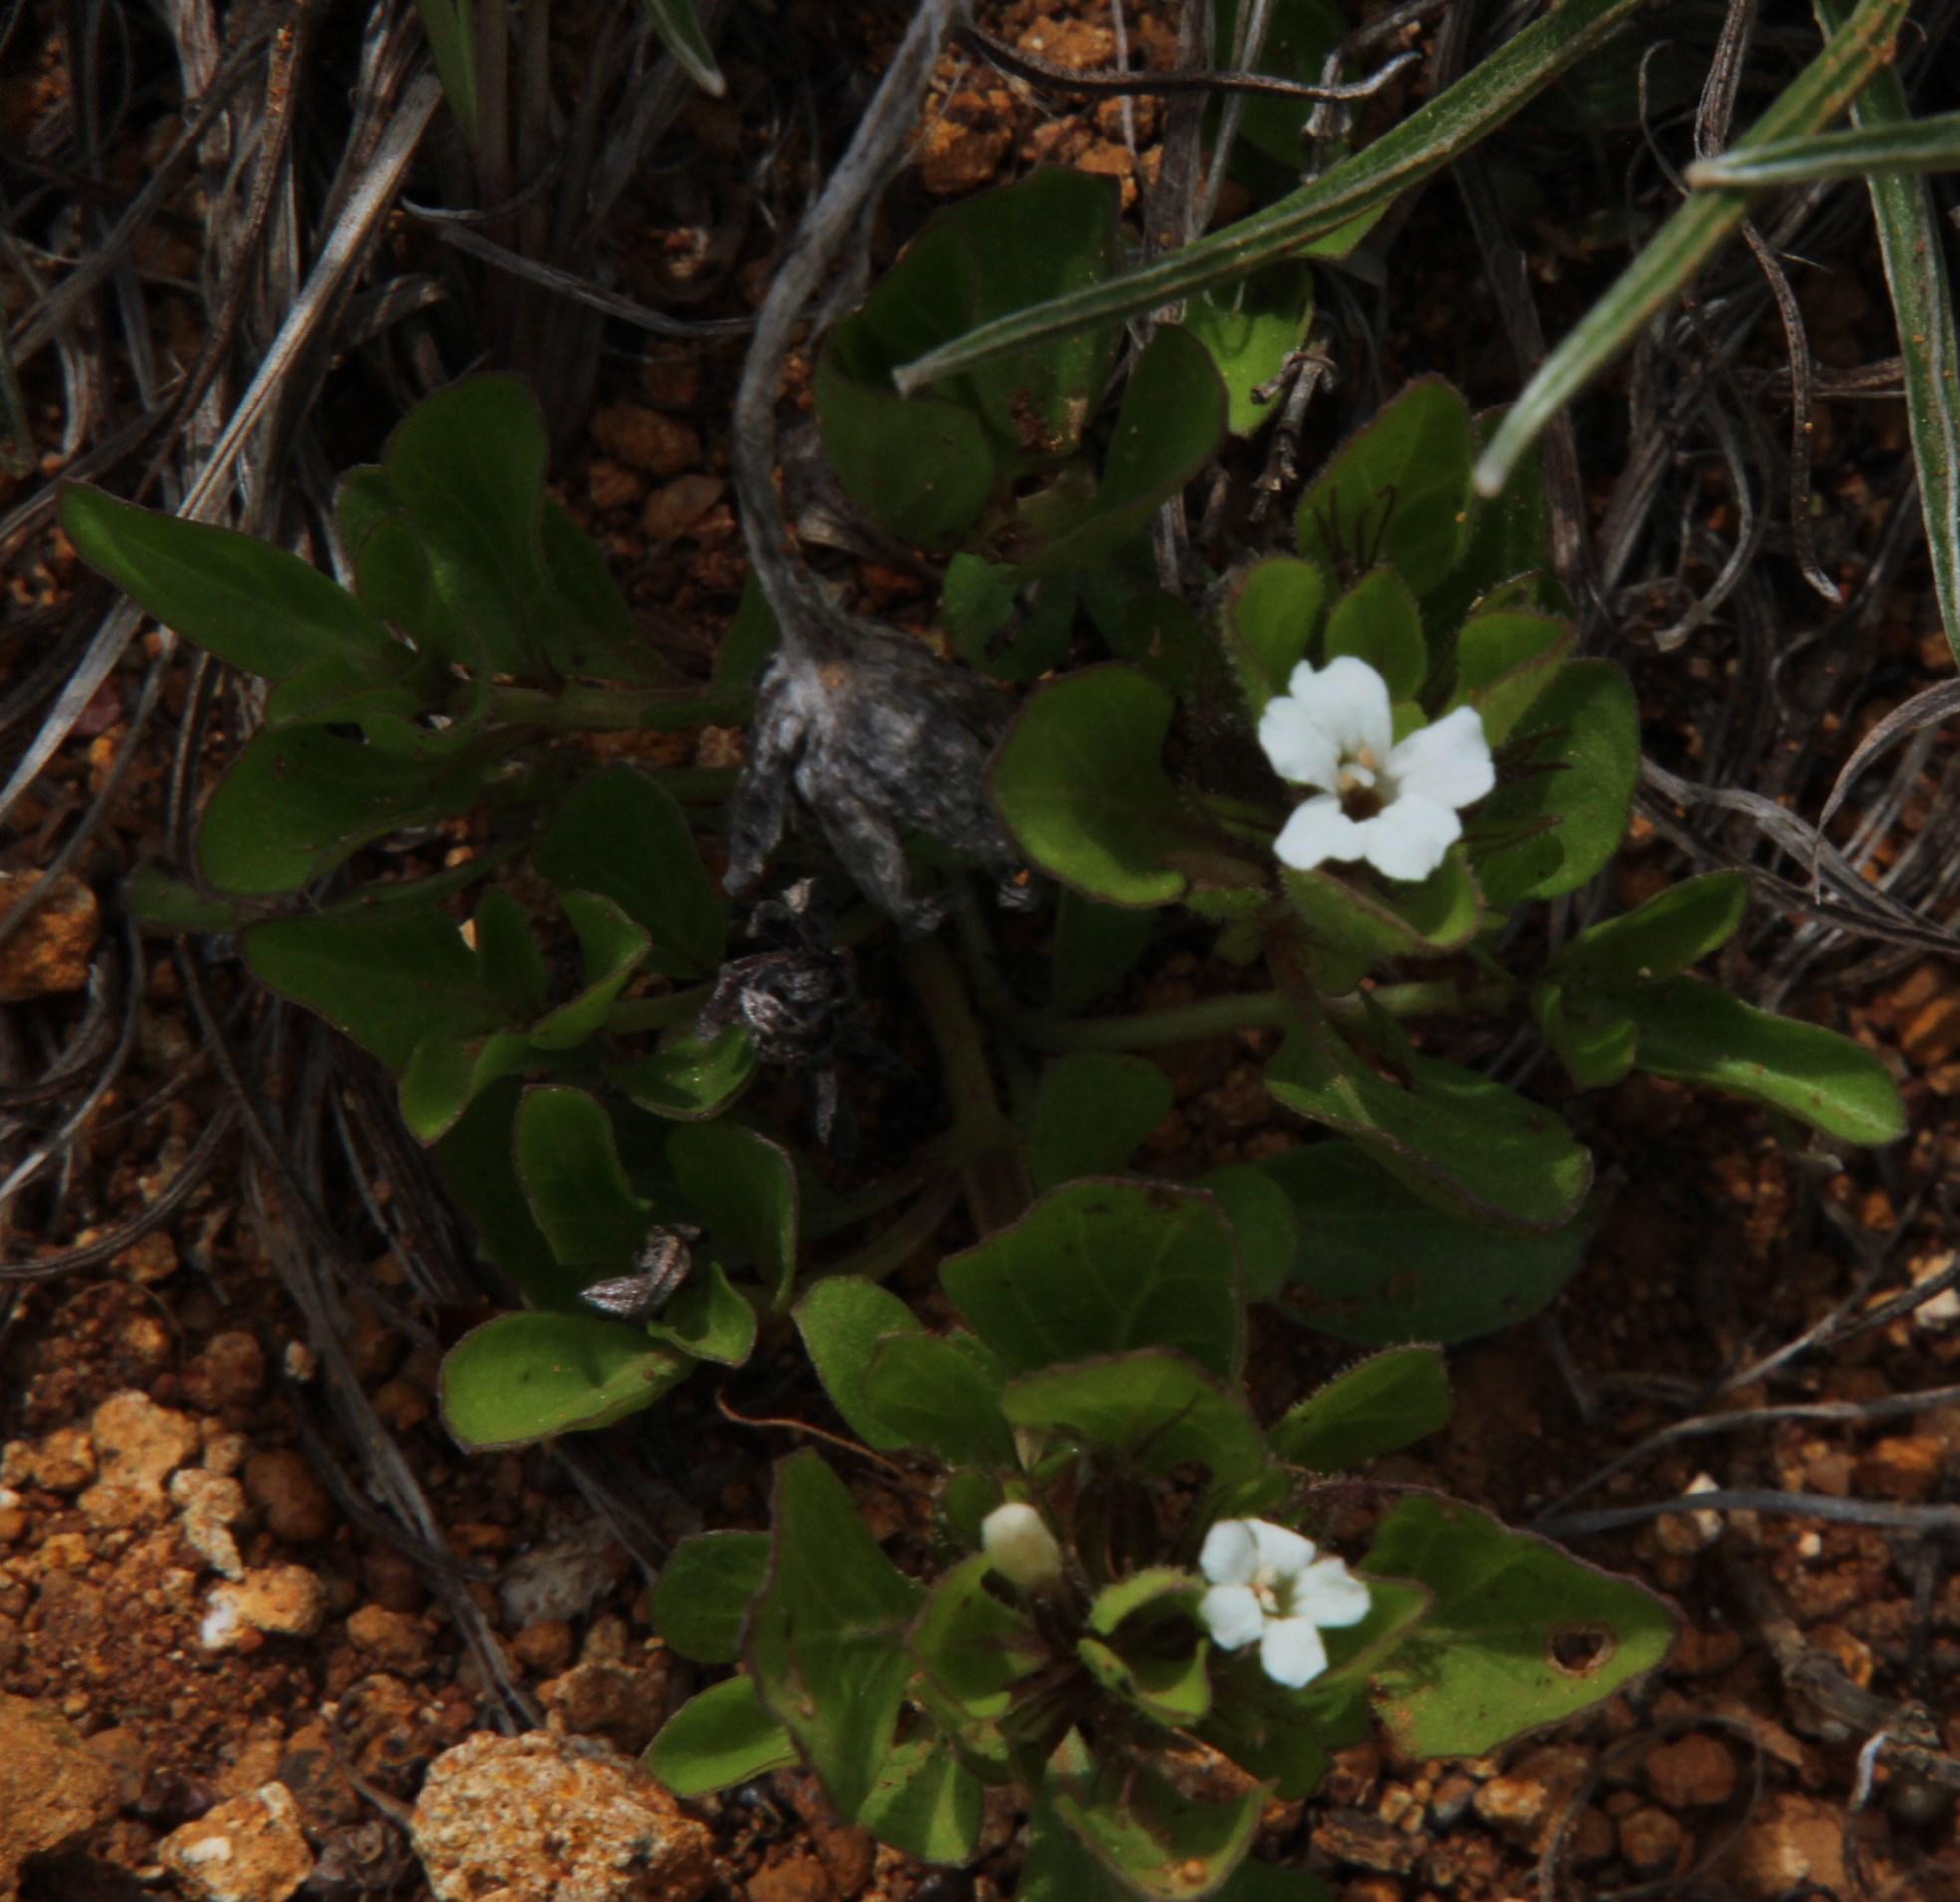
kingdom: Plantae
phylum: Tracheophyta
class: Magnoliopsida
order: Lamiales
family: Acanthaceae
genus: Dyschoriste
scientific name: Dyschoriste setigera
